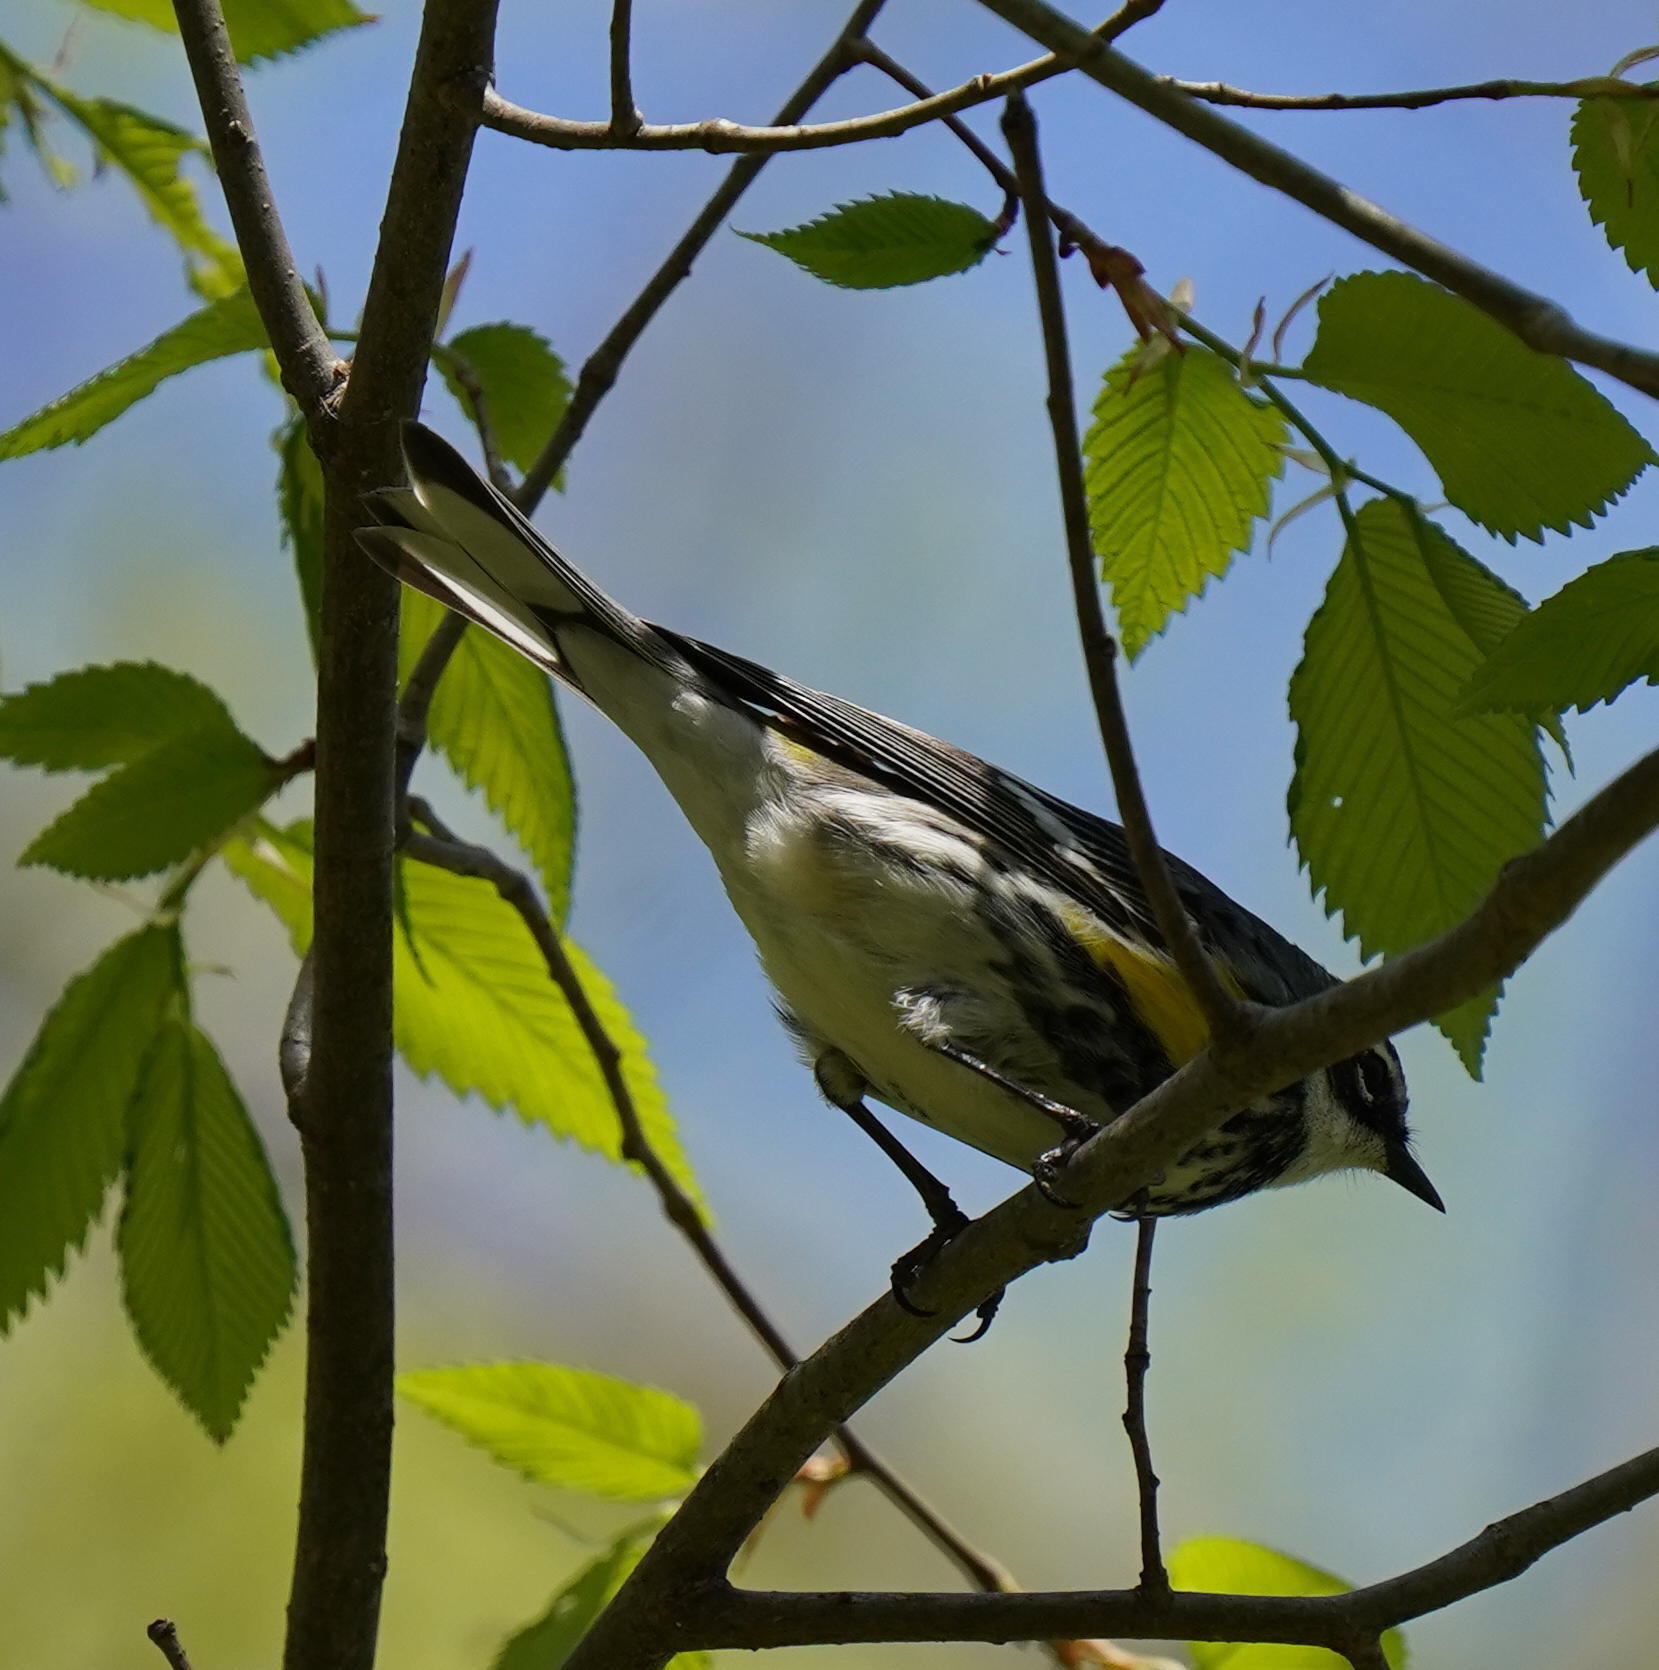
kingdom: Animalia
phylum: Chordata
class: Aves
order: Passeriformes
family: Parulidae
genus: Setophaga
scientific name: Setophaga coronata
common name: Myrtle warbler
